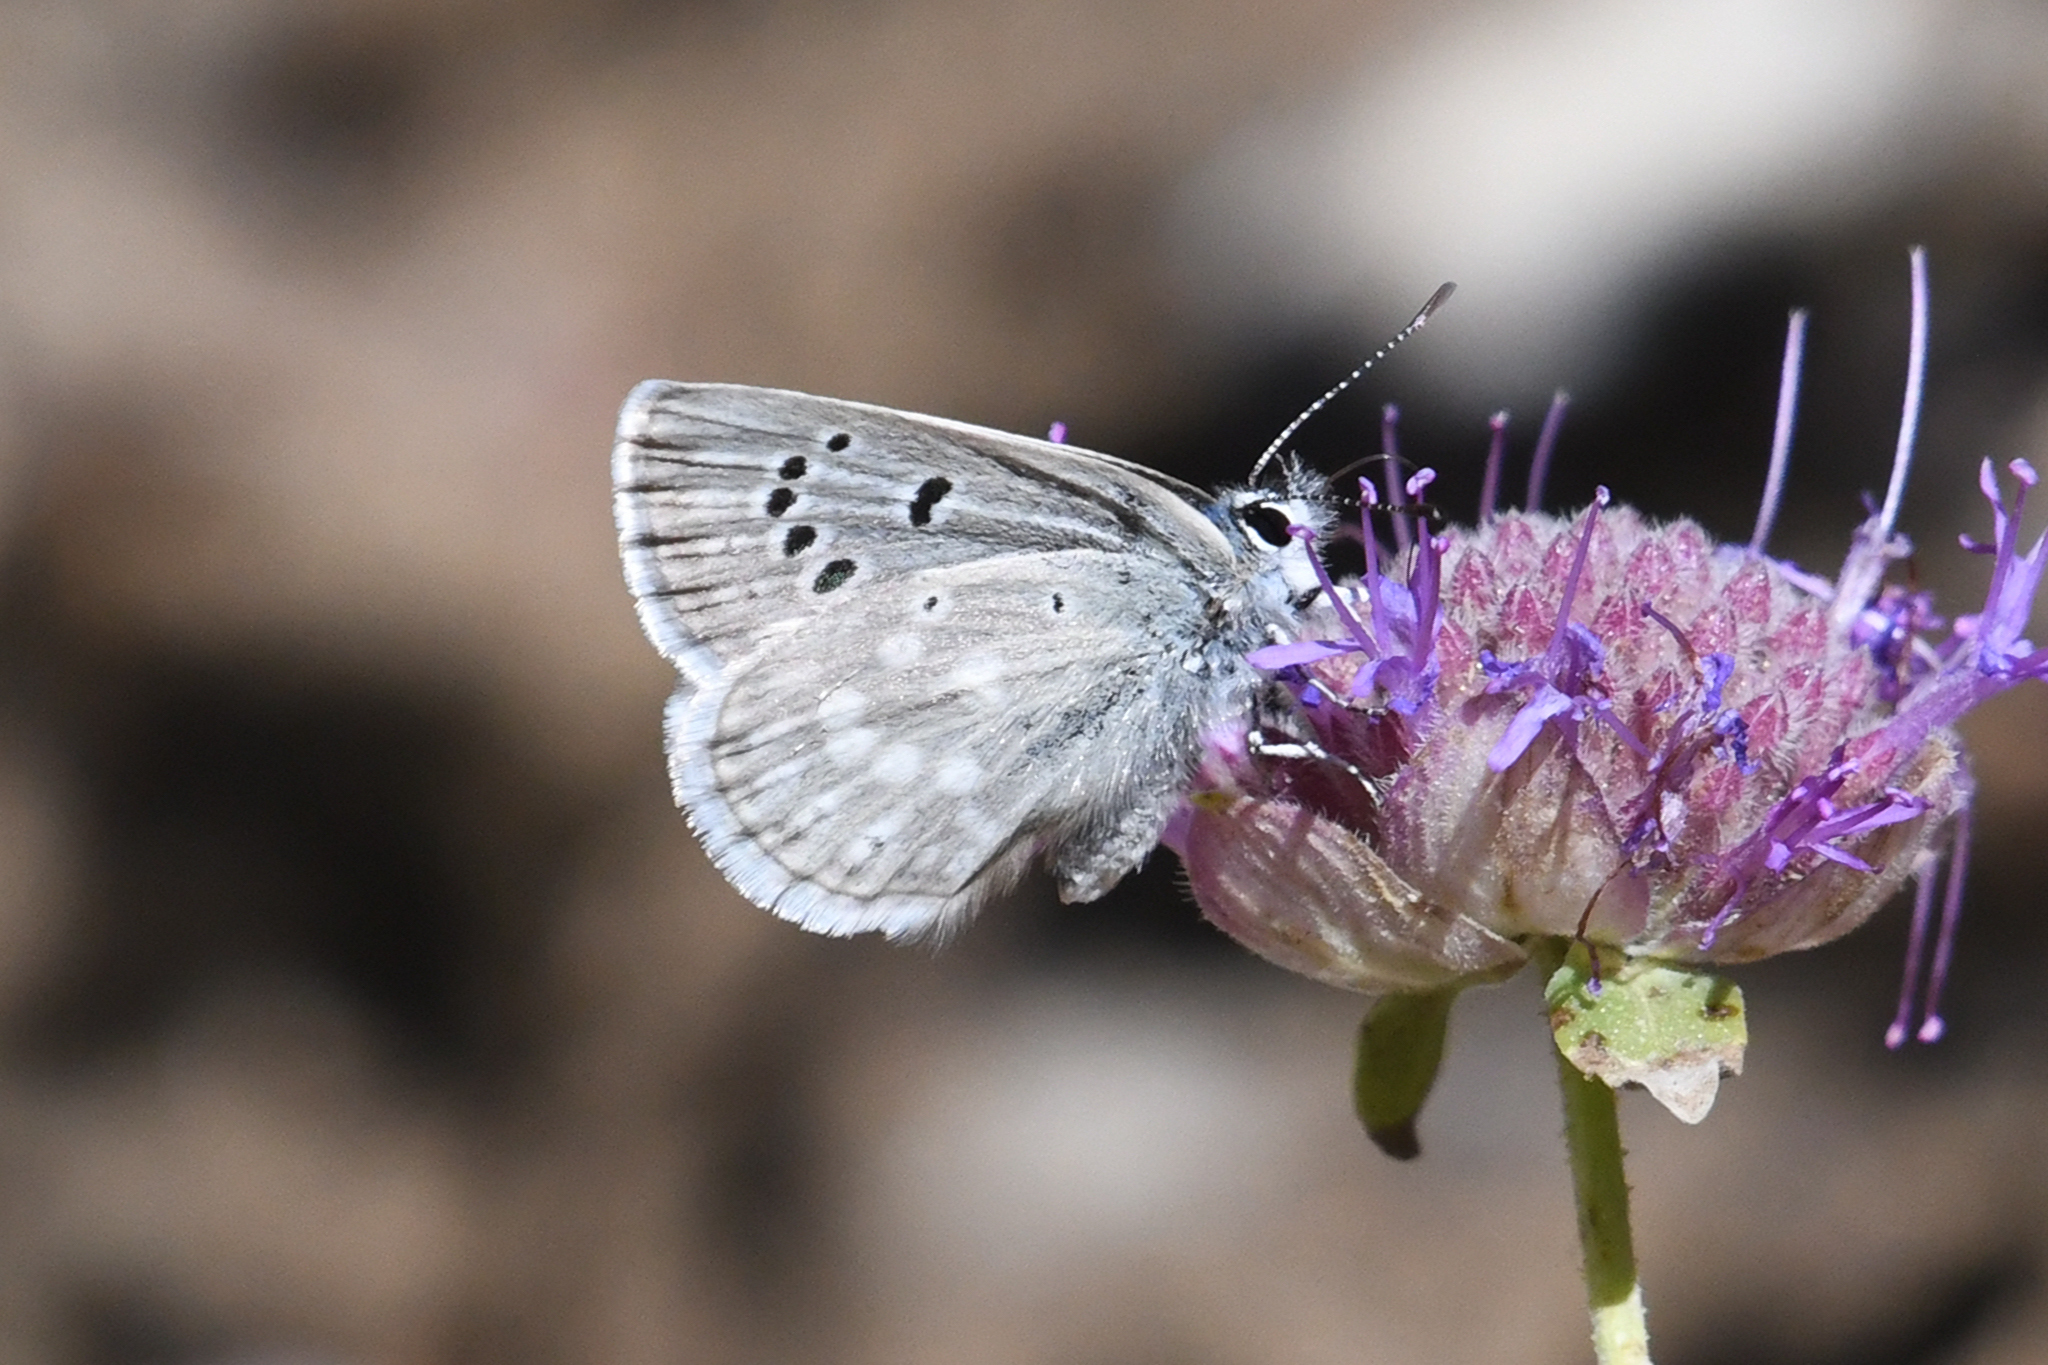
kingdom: Animalia
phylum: Arthropoda
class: Insecta
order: Lepidoptera
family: Lycaenidae
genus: Icaricia
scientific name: Icaricia icarioides
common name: Boisduval's blue
